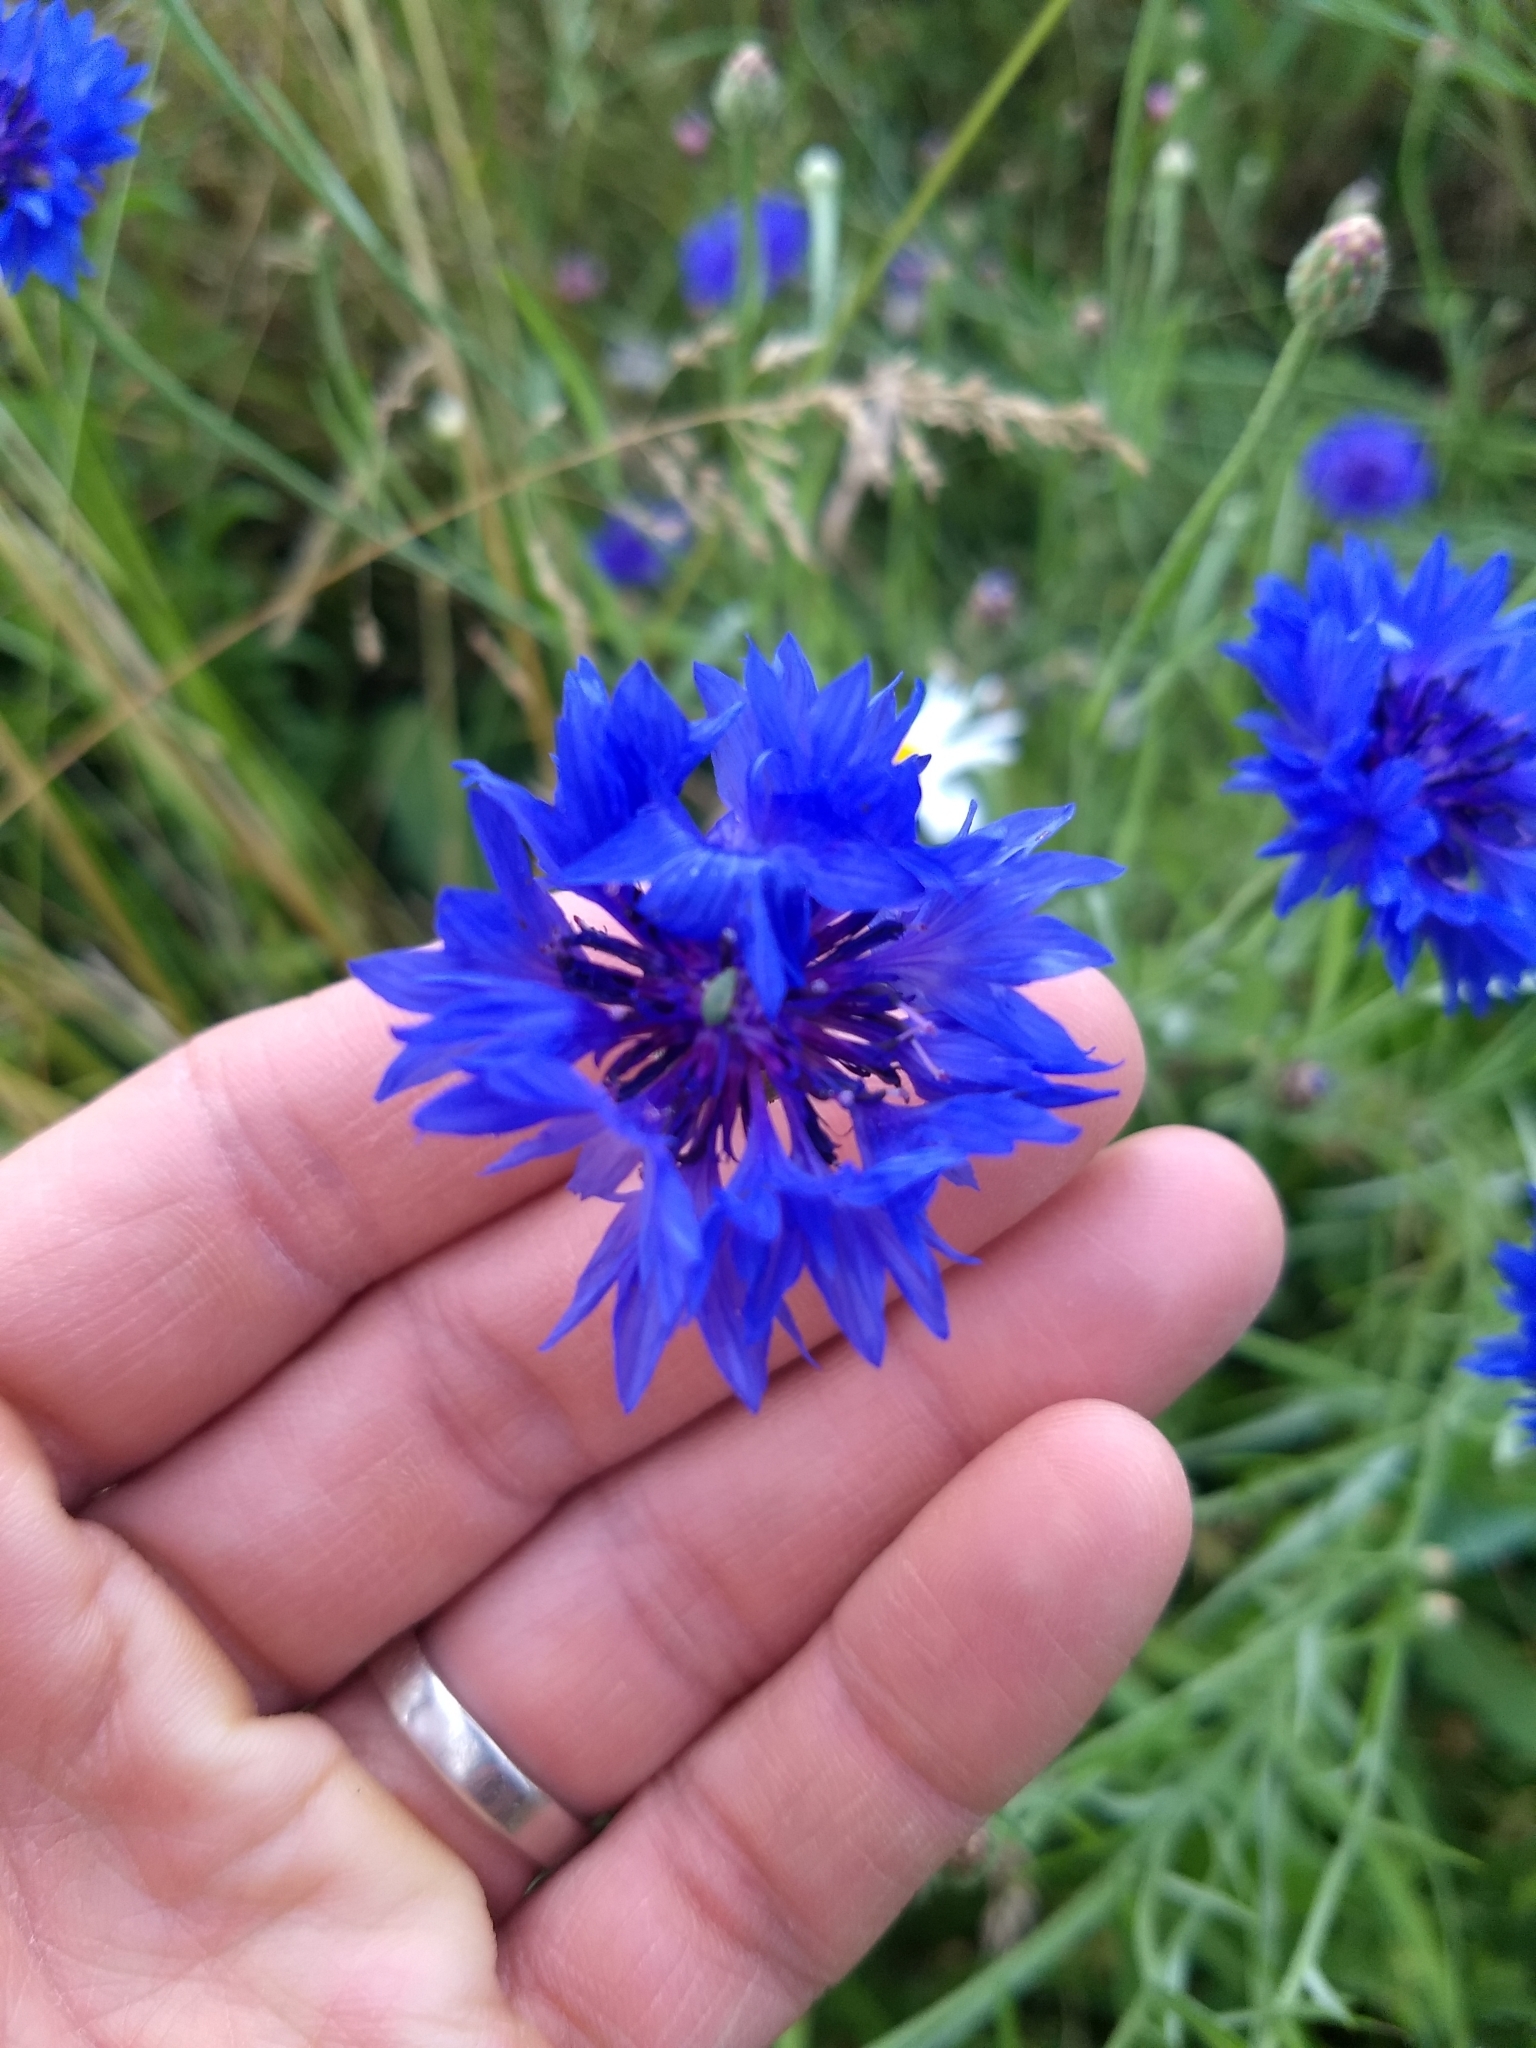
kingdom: Plantae
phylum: Tracheophyta
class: Magnoliopsida
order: Asterales
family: Asteraceae
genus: Centaurea
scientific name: Centaurea cyanus
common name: Cornflower
